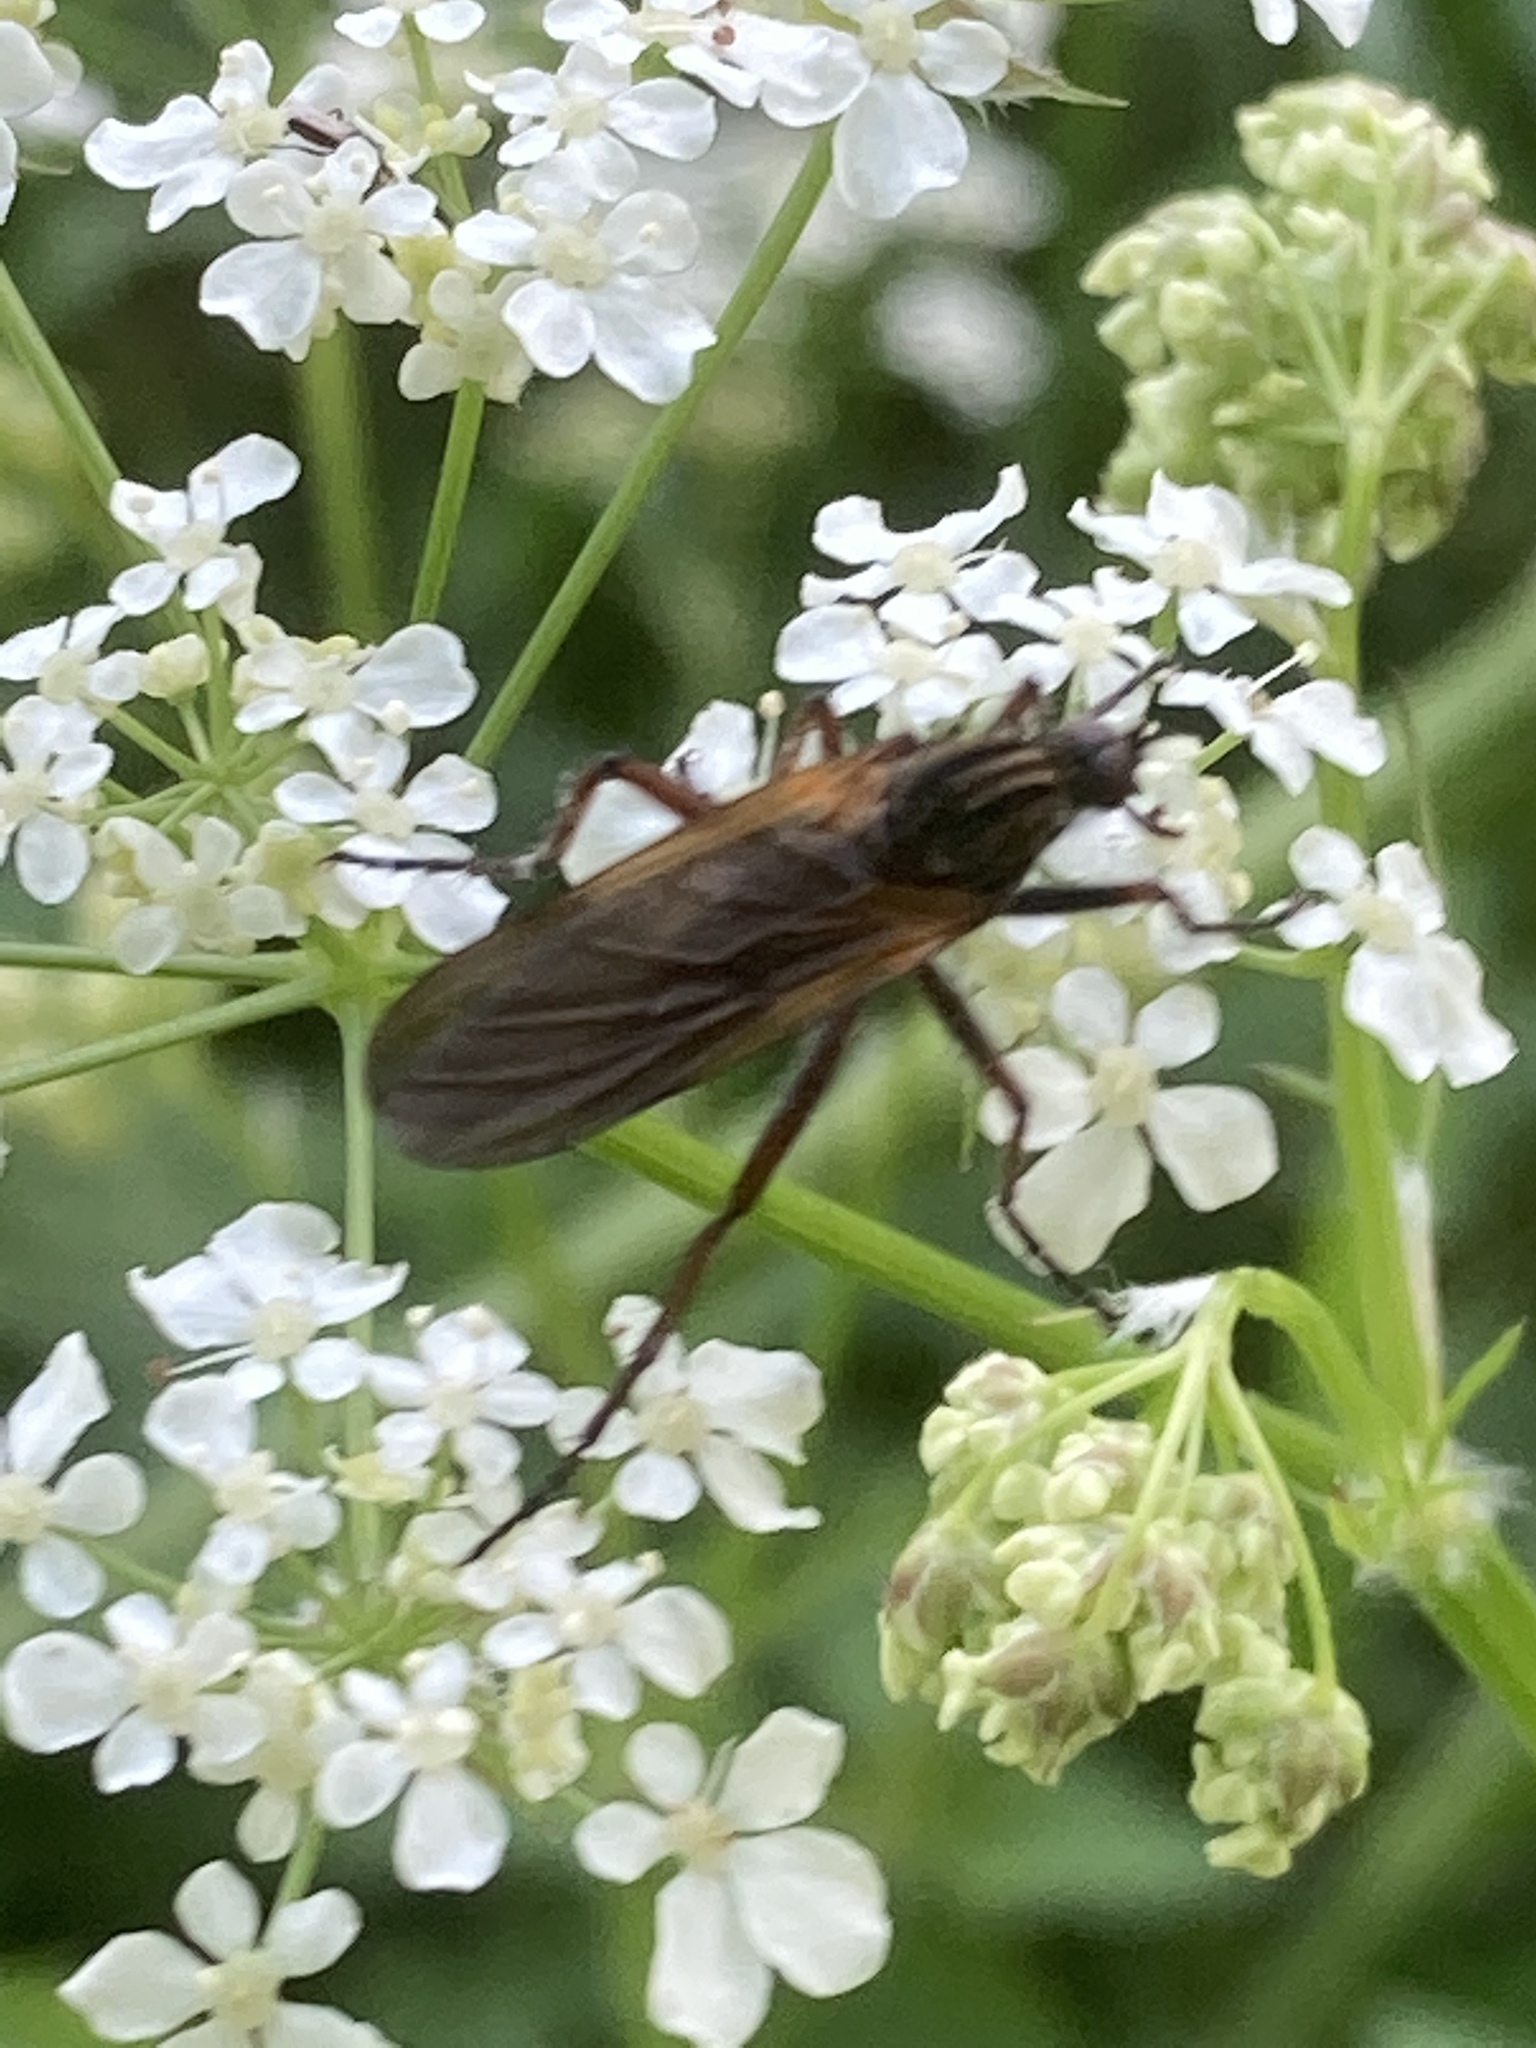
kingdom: Animalia
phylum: Arthropoda
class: Insecta
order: Diptera
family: Empididae
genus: Empis
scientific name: Empis tessellata
